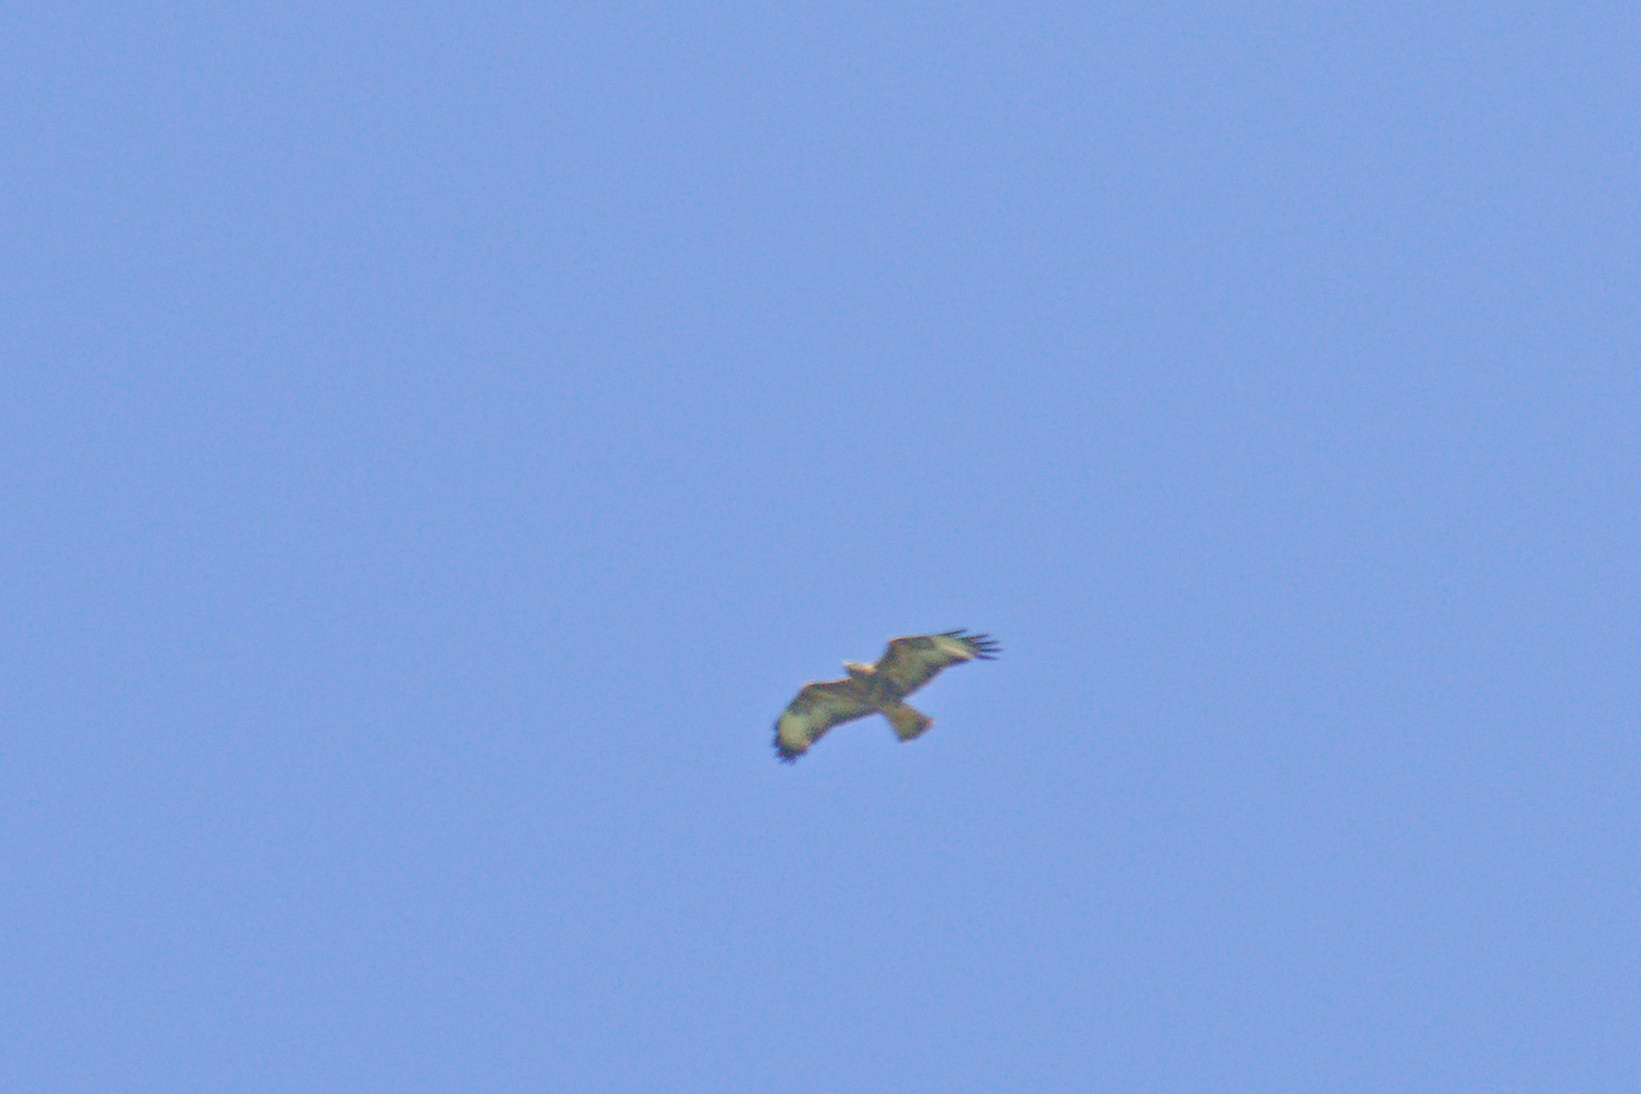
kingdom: Animalia
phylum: Chordata
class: Aves
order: Accipitriformes
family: Accipitridae
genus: Buteo
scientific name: Buteo buteo
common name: Common buzzard
